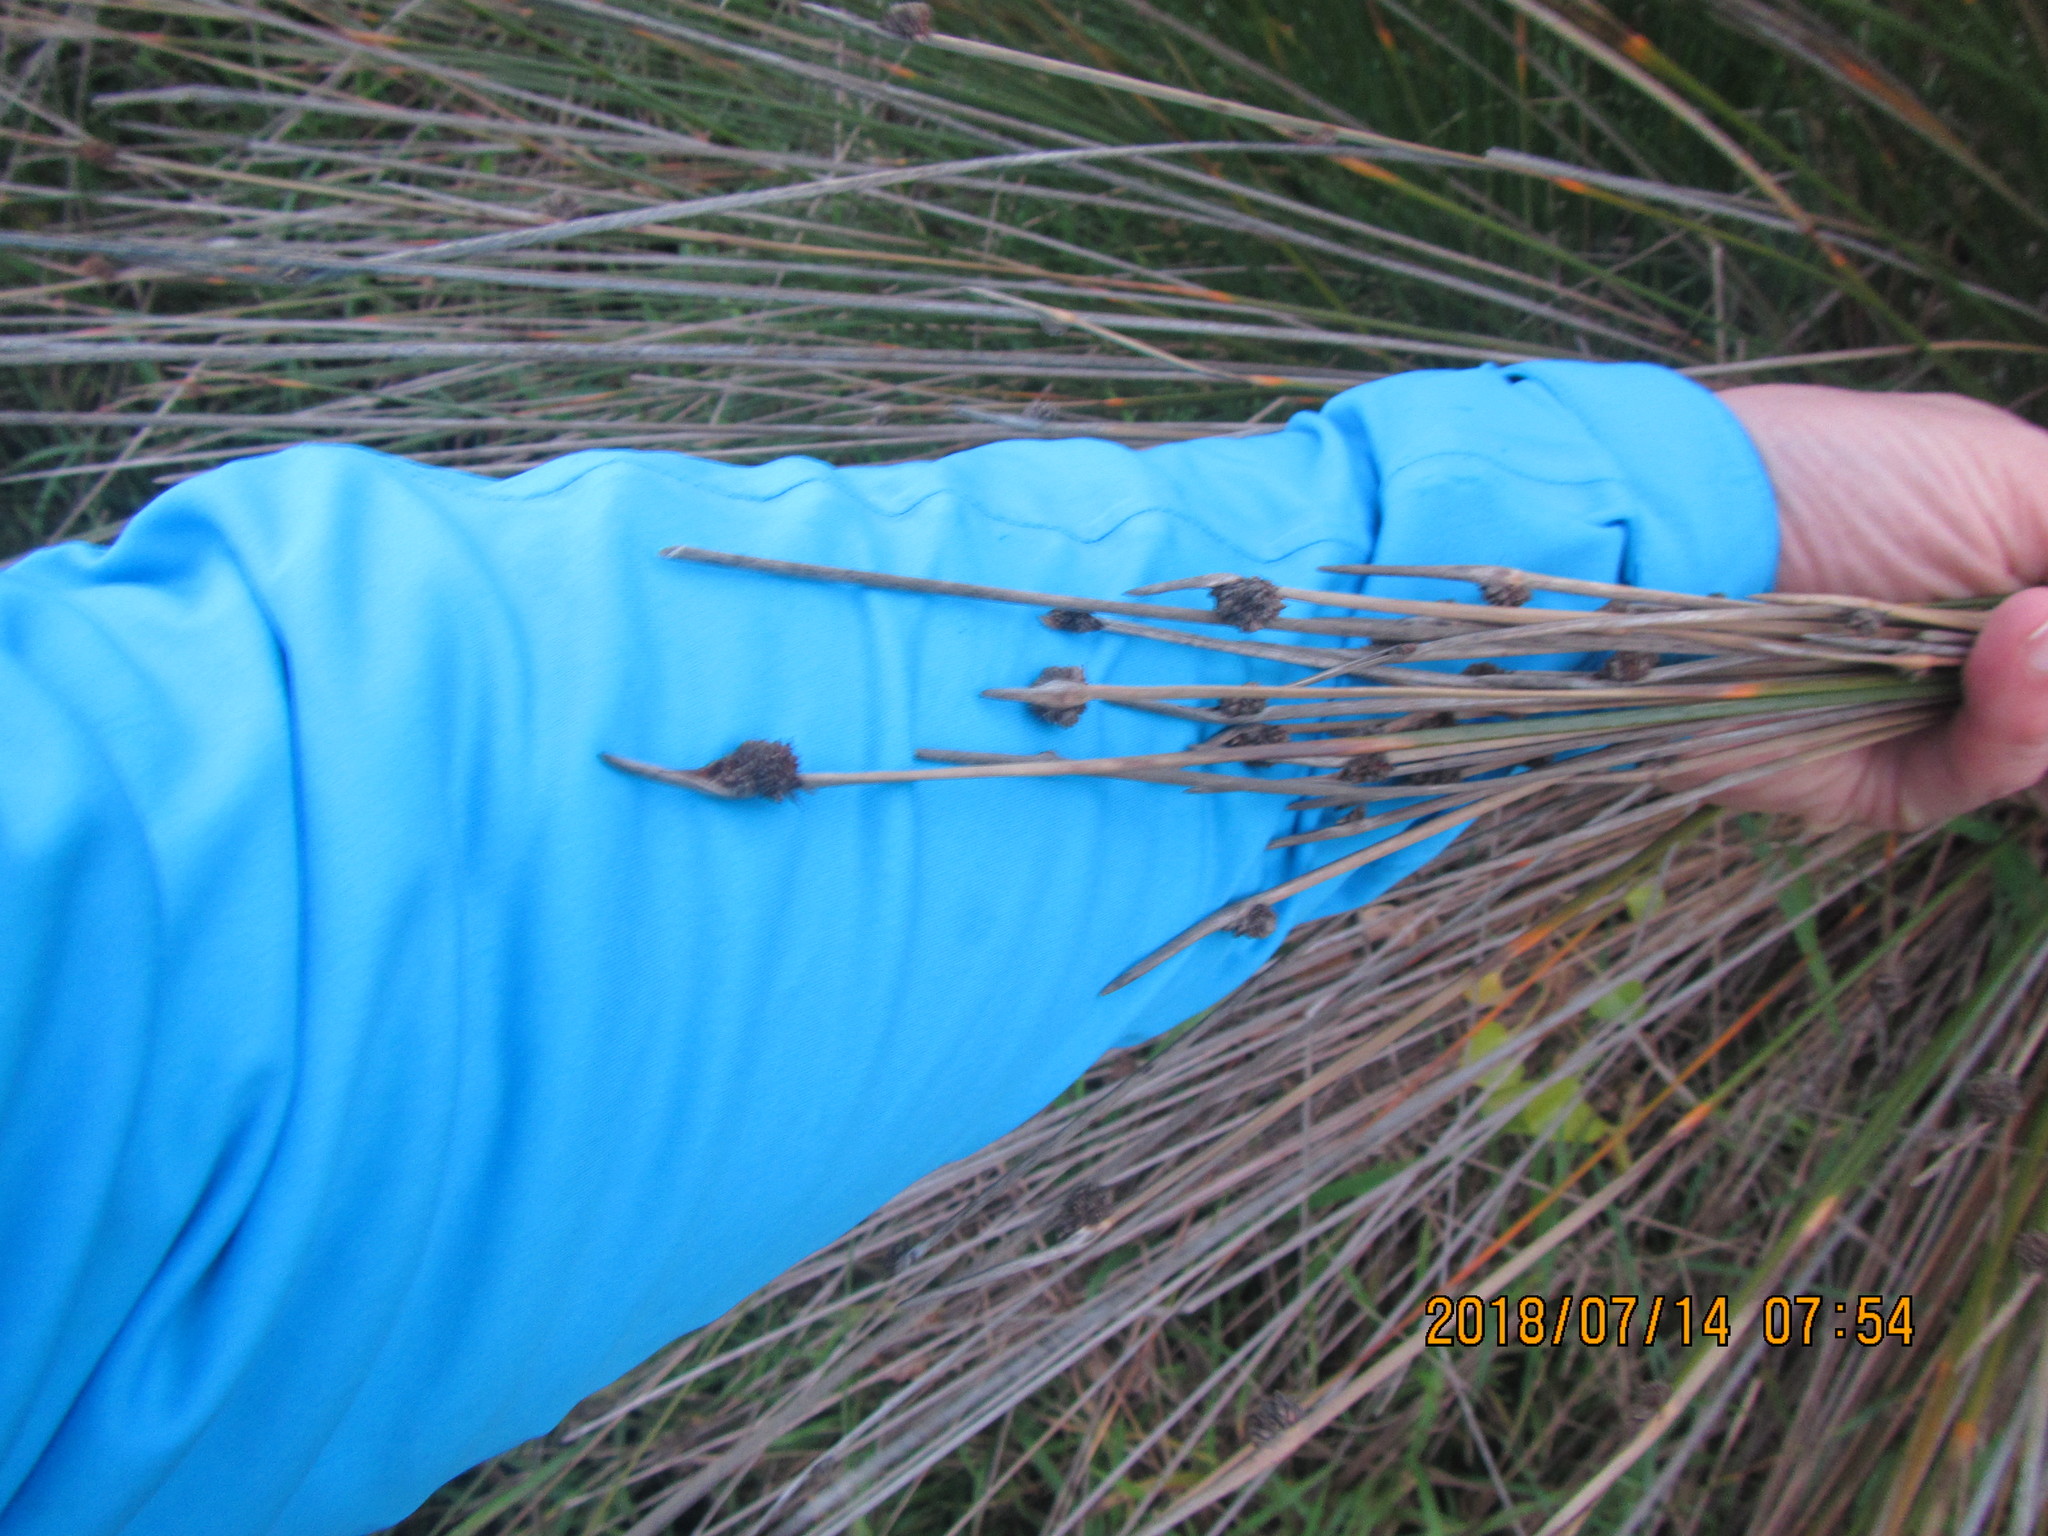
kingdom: Plantae
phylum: Tracheophyta
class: Liliopsida
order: Poales
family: Cyperaceae
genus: Ficinia
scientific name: Ficinia nodosa
